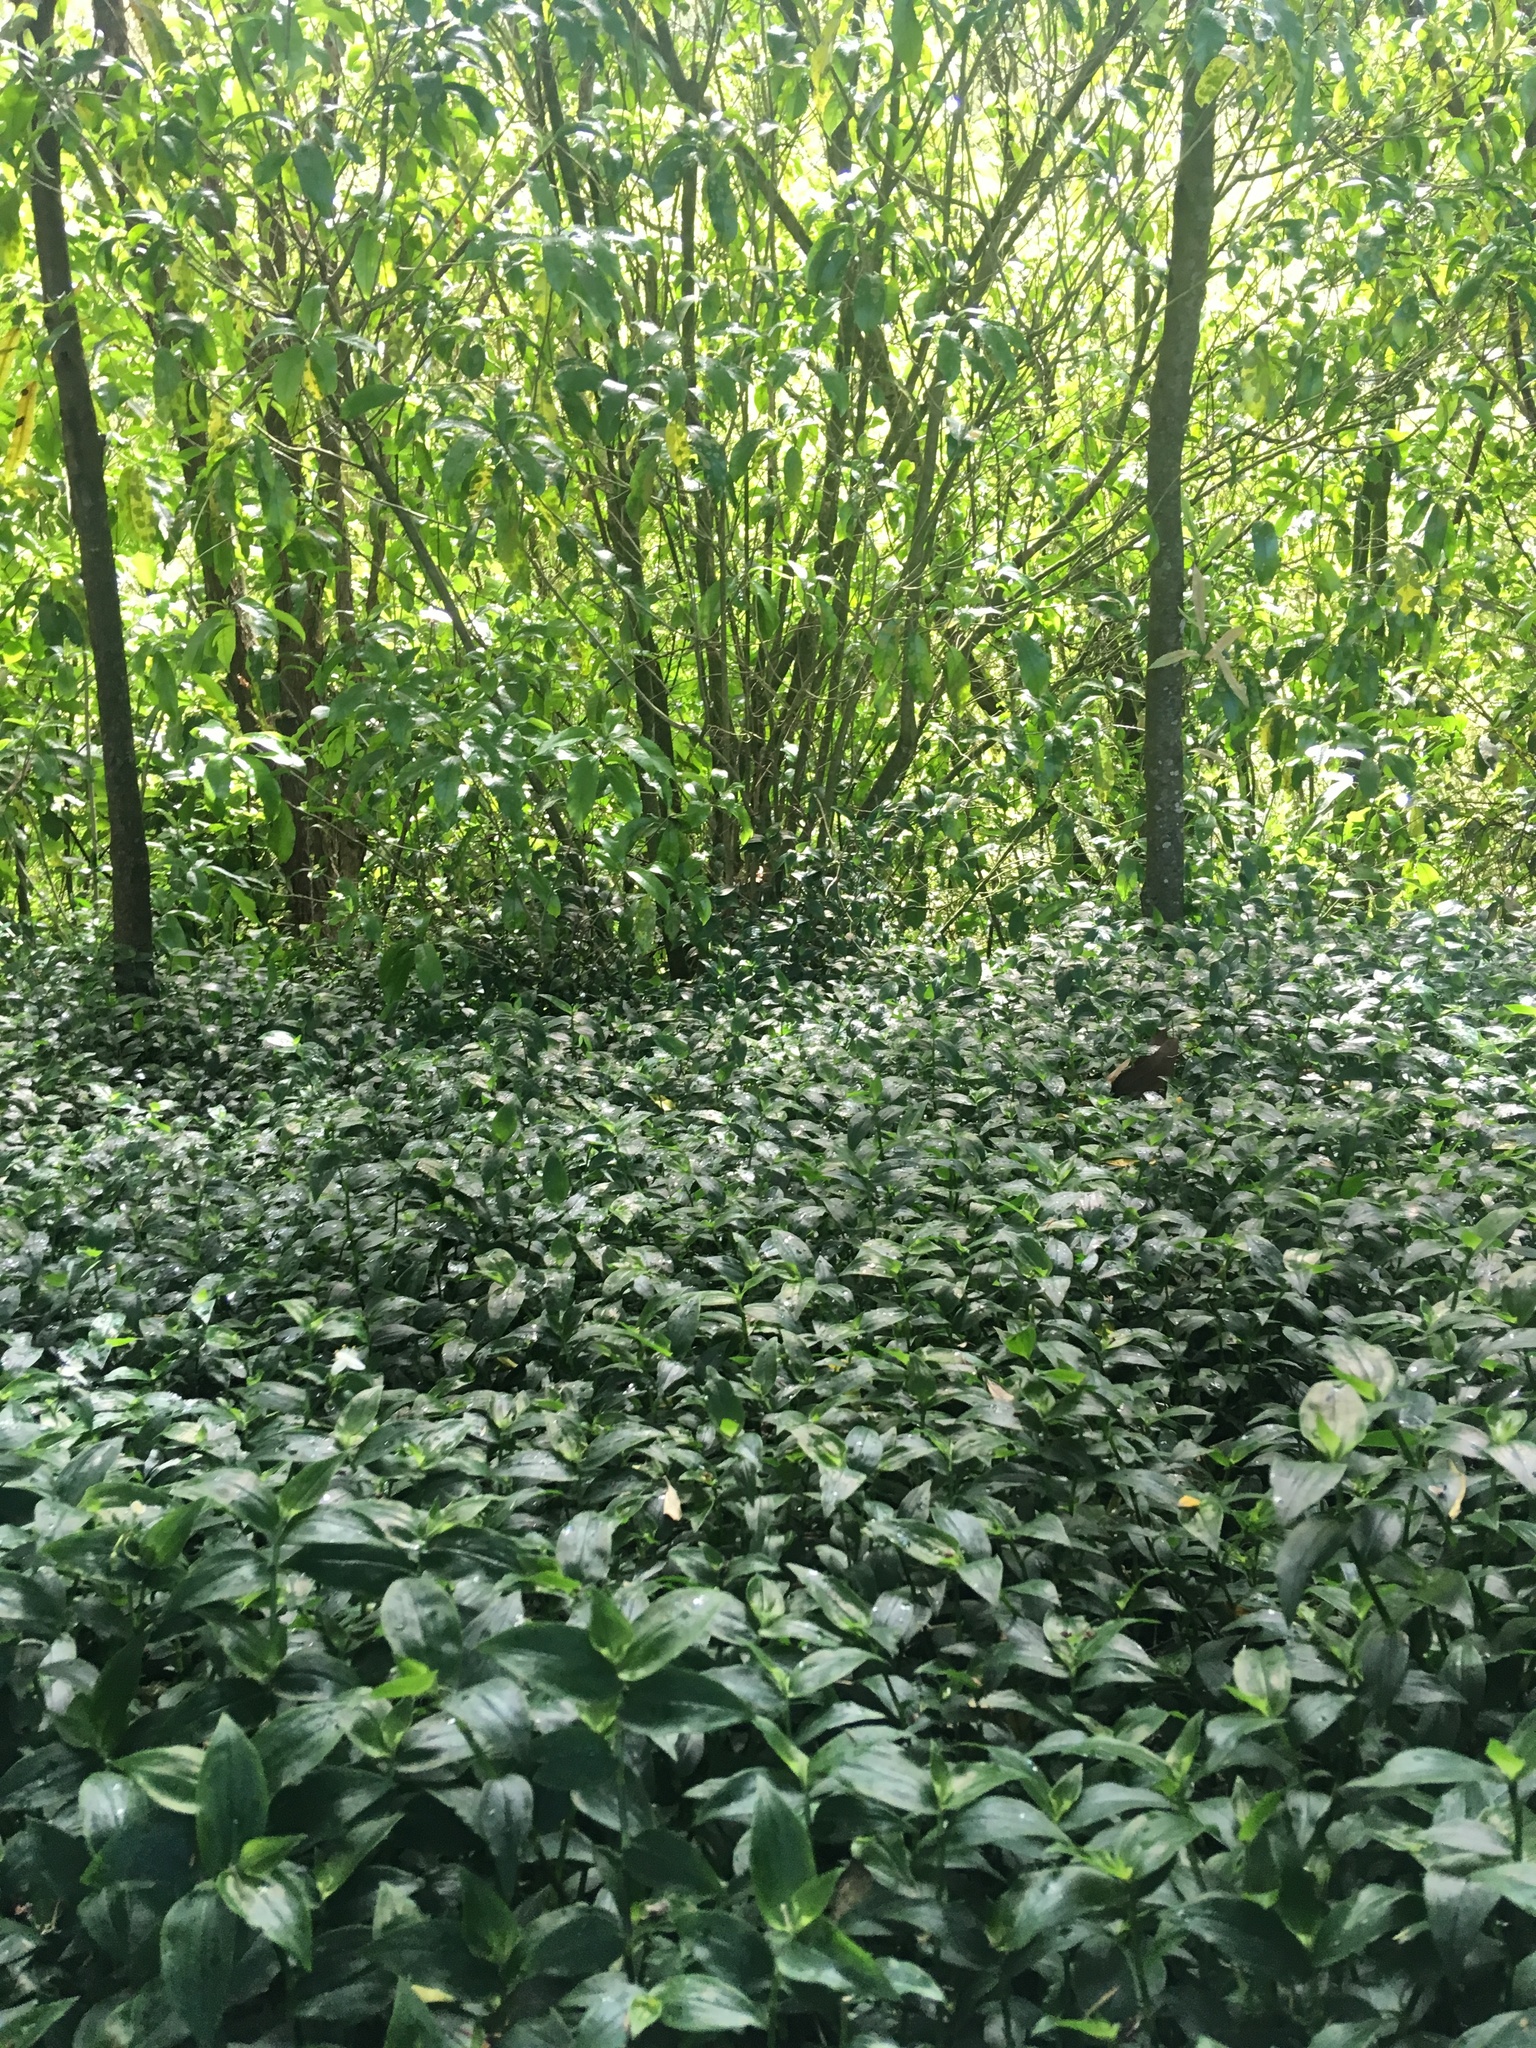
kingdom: Plantae
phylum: Tracheophyta
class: Liliopsida
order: Commelinales
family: Commelinaceae
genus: Tradescantia
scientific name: Tradescantia fluminensis
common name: Wandering-jew
